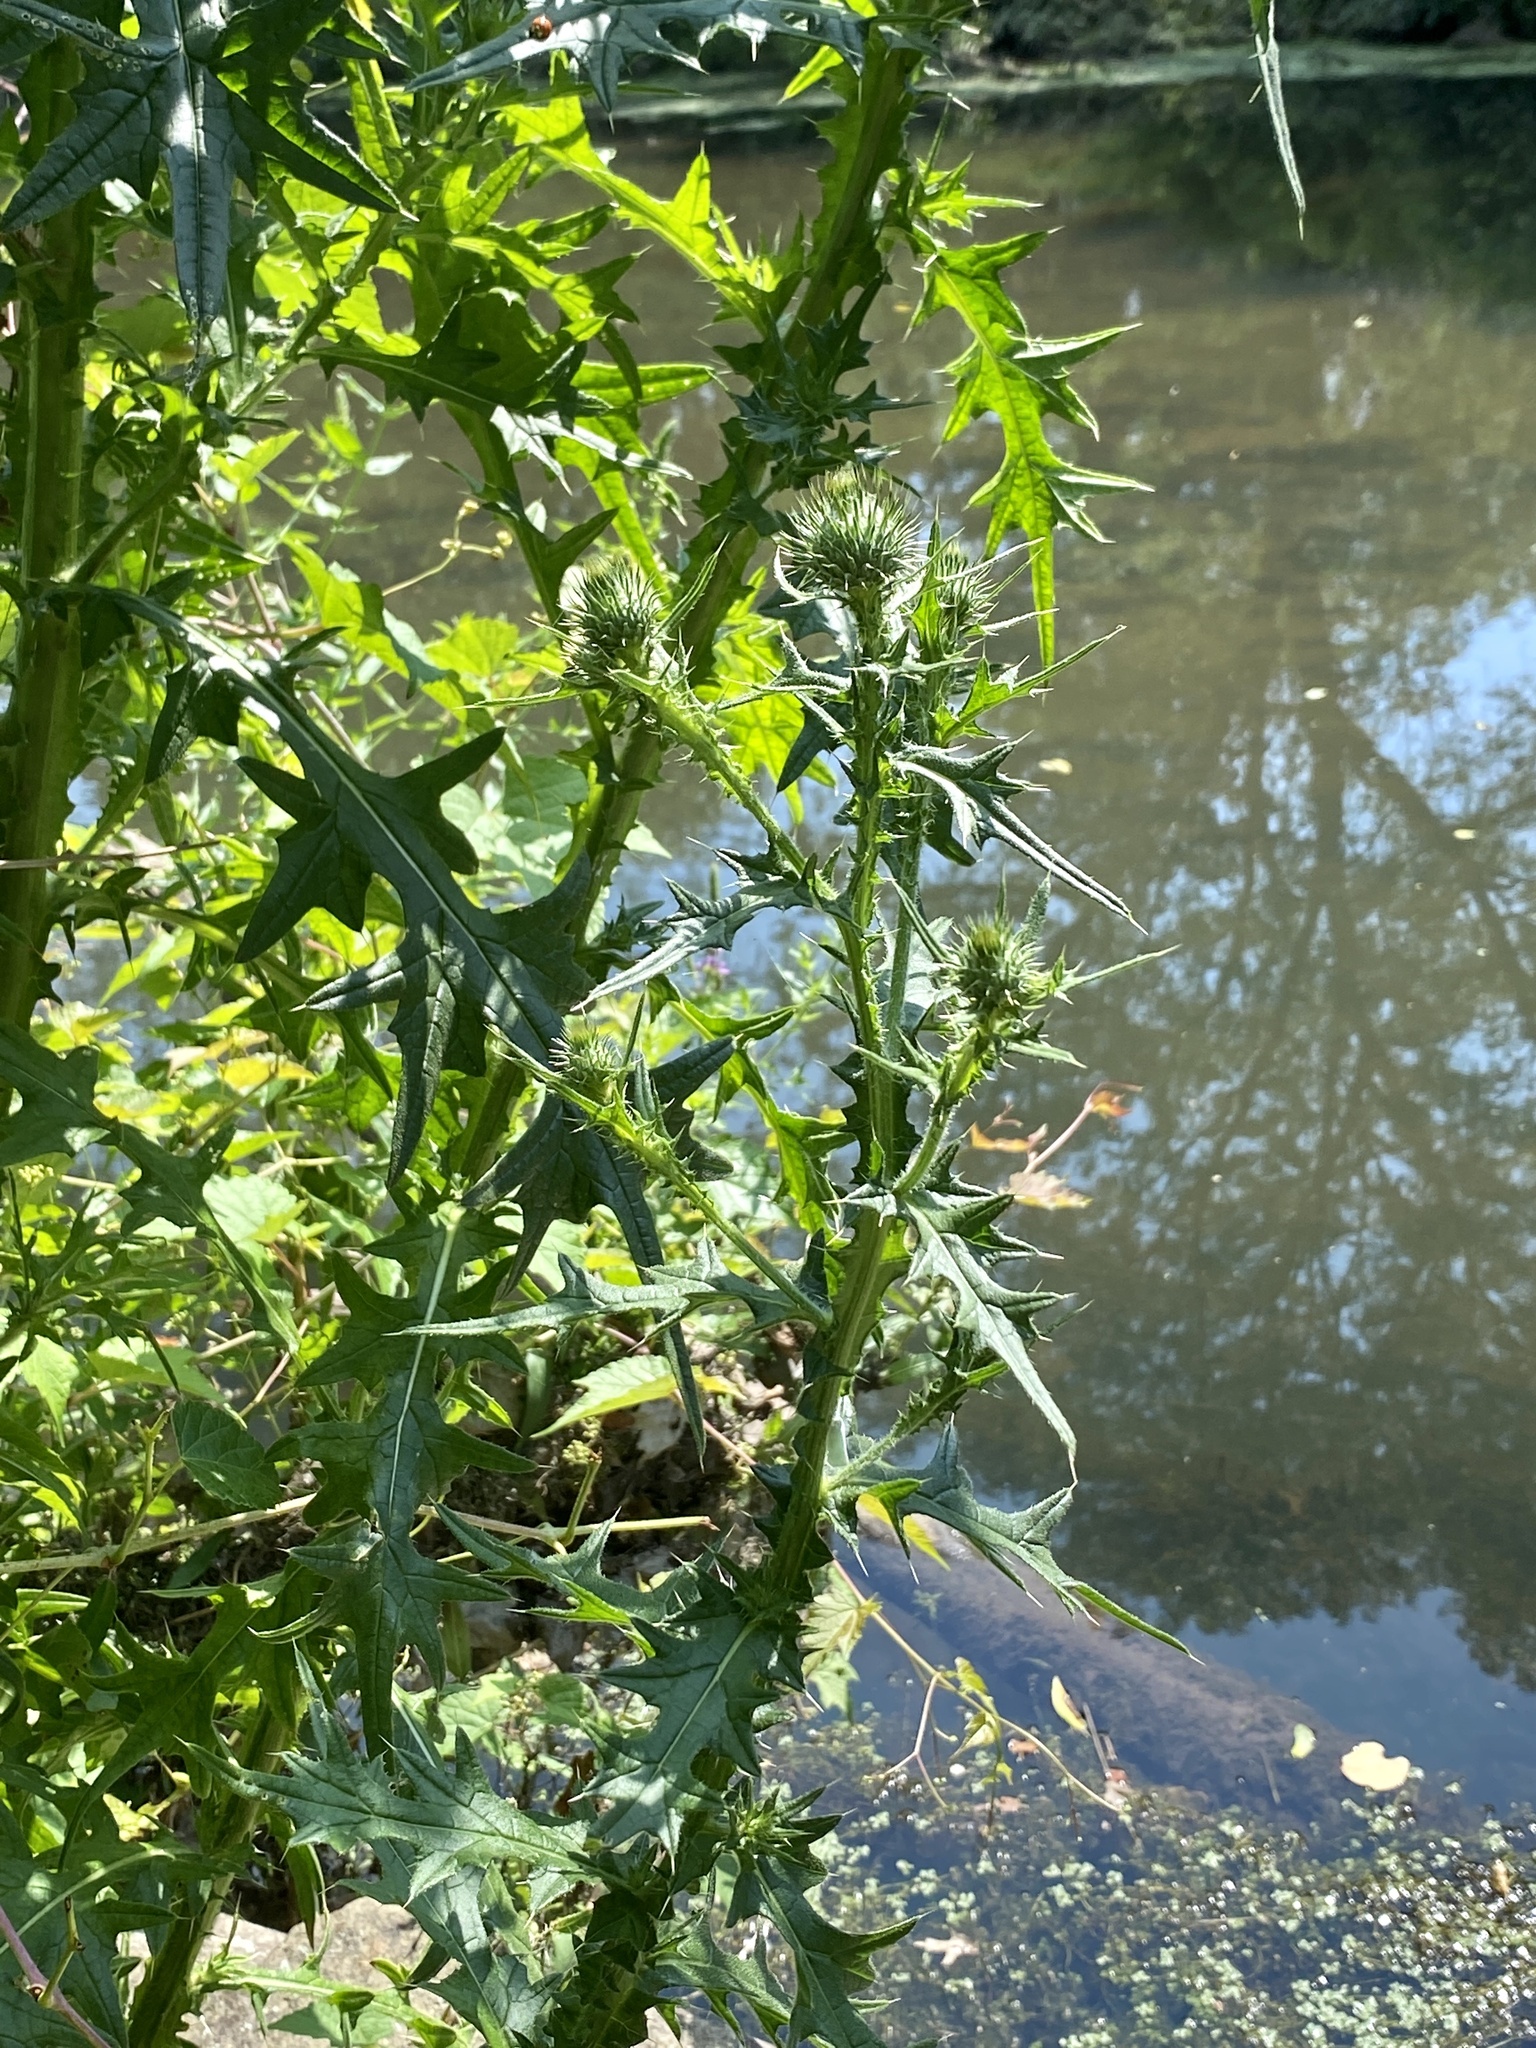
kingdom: Plantae
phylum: Tracheophyta
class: Magnoliopsida
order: Asterales
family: Asteraceae
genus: Cirsium
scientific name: Cirsium vulgare
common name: Bull thistle
